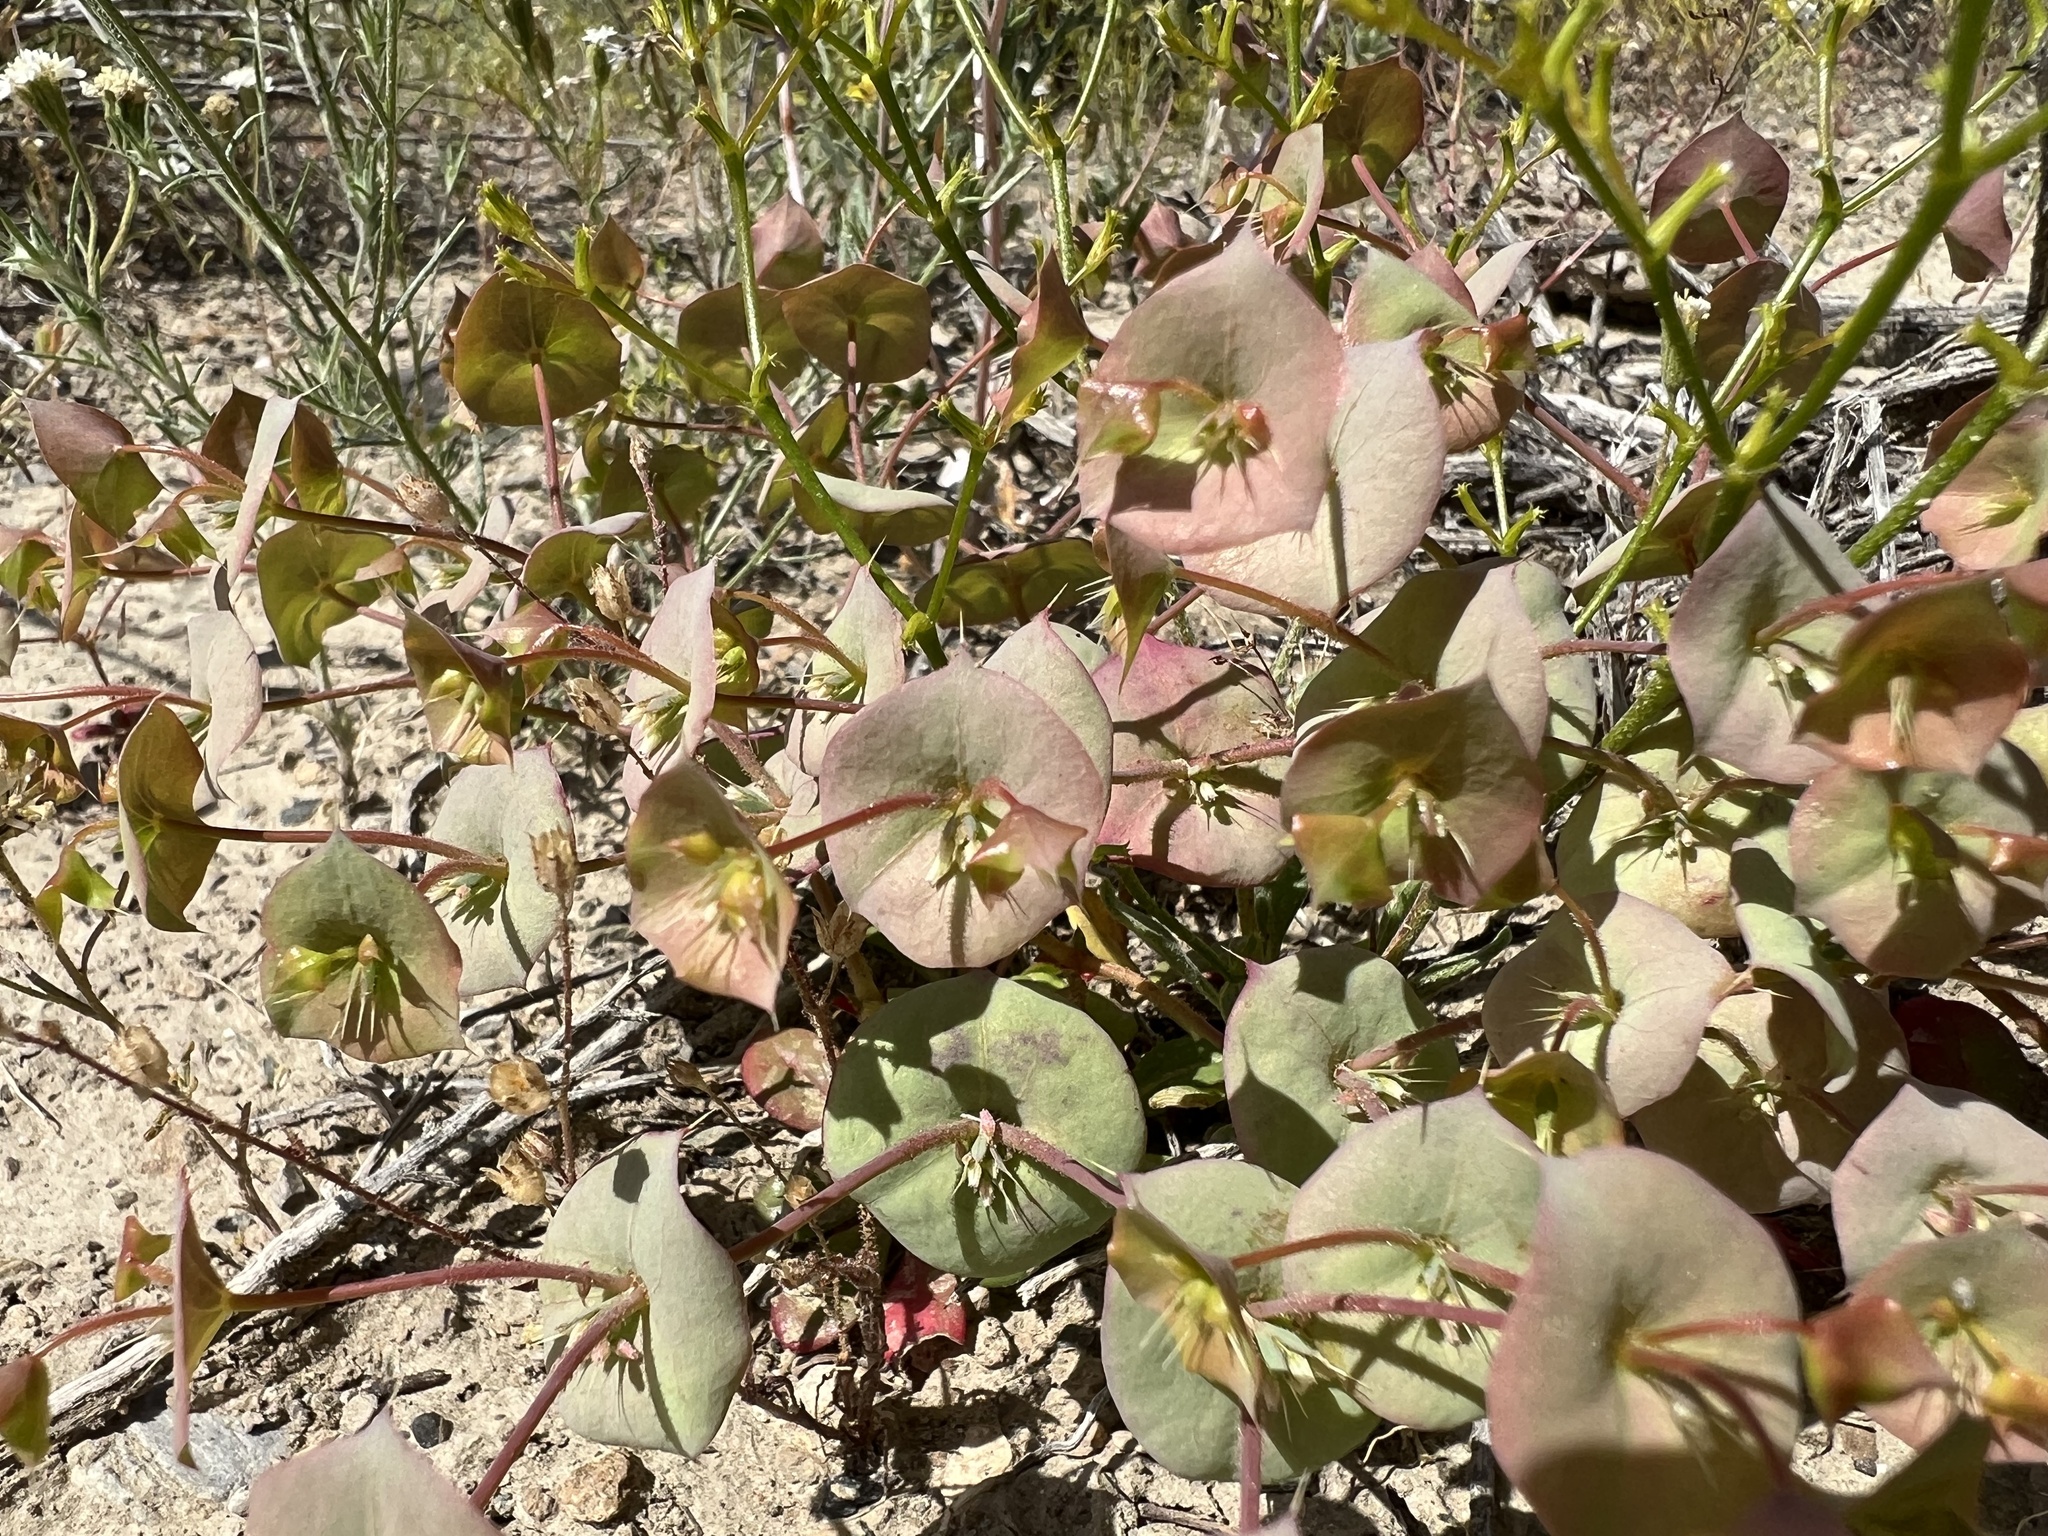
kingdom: Plantae
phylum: Tracheophyta
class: Magnoliopsida
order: Caryophyllales
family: Polygonaceae
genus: Oxytheca
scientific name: Oxytheca perfoliata
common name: Round-leaf puncturebract
